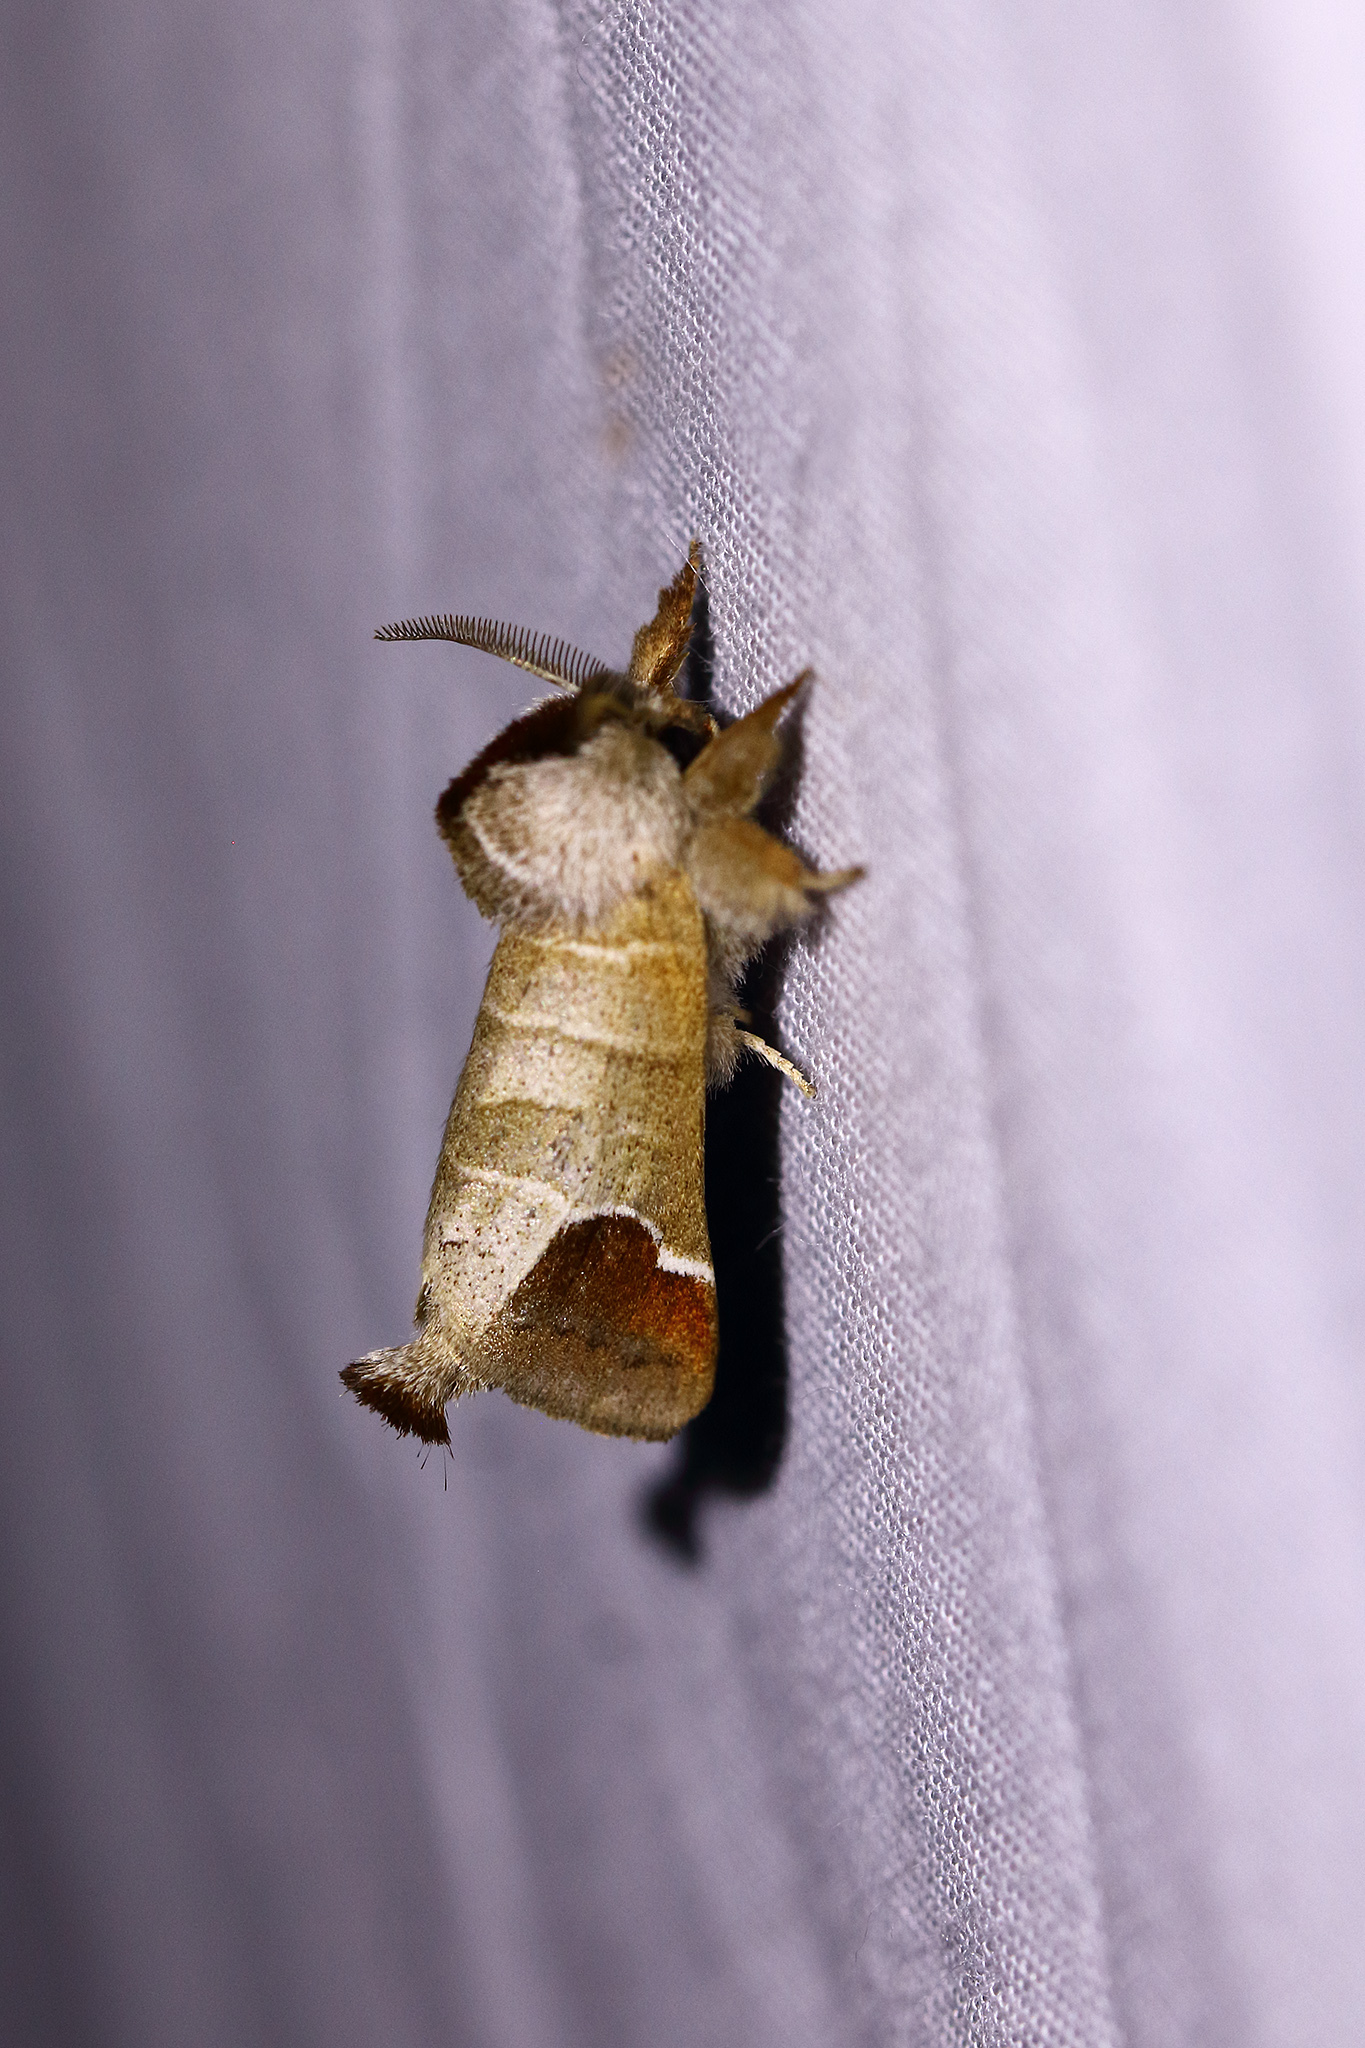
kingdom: Animalia
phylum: Arthropoda
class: Insecta
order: Lepidoptera
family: Notodontidae
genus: Clostera
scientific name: Clostera curtula
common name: Chocolate-tip
